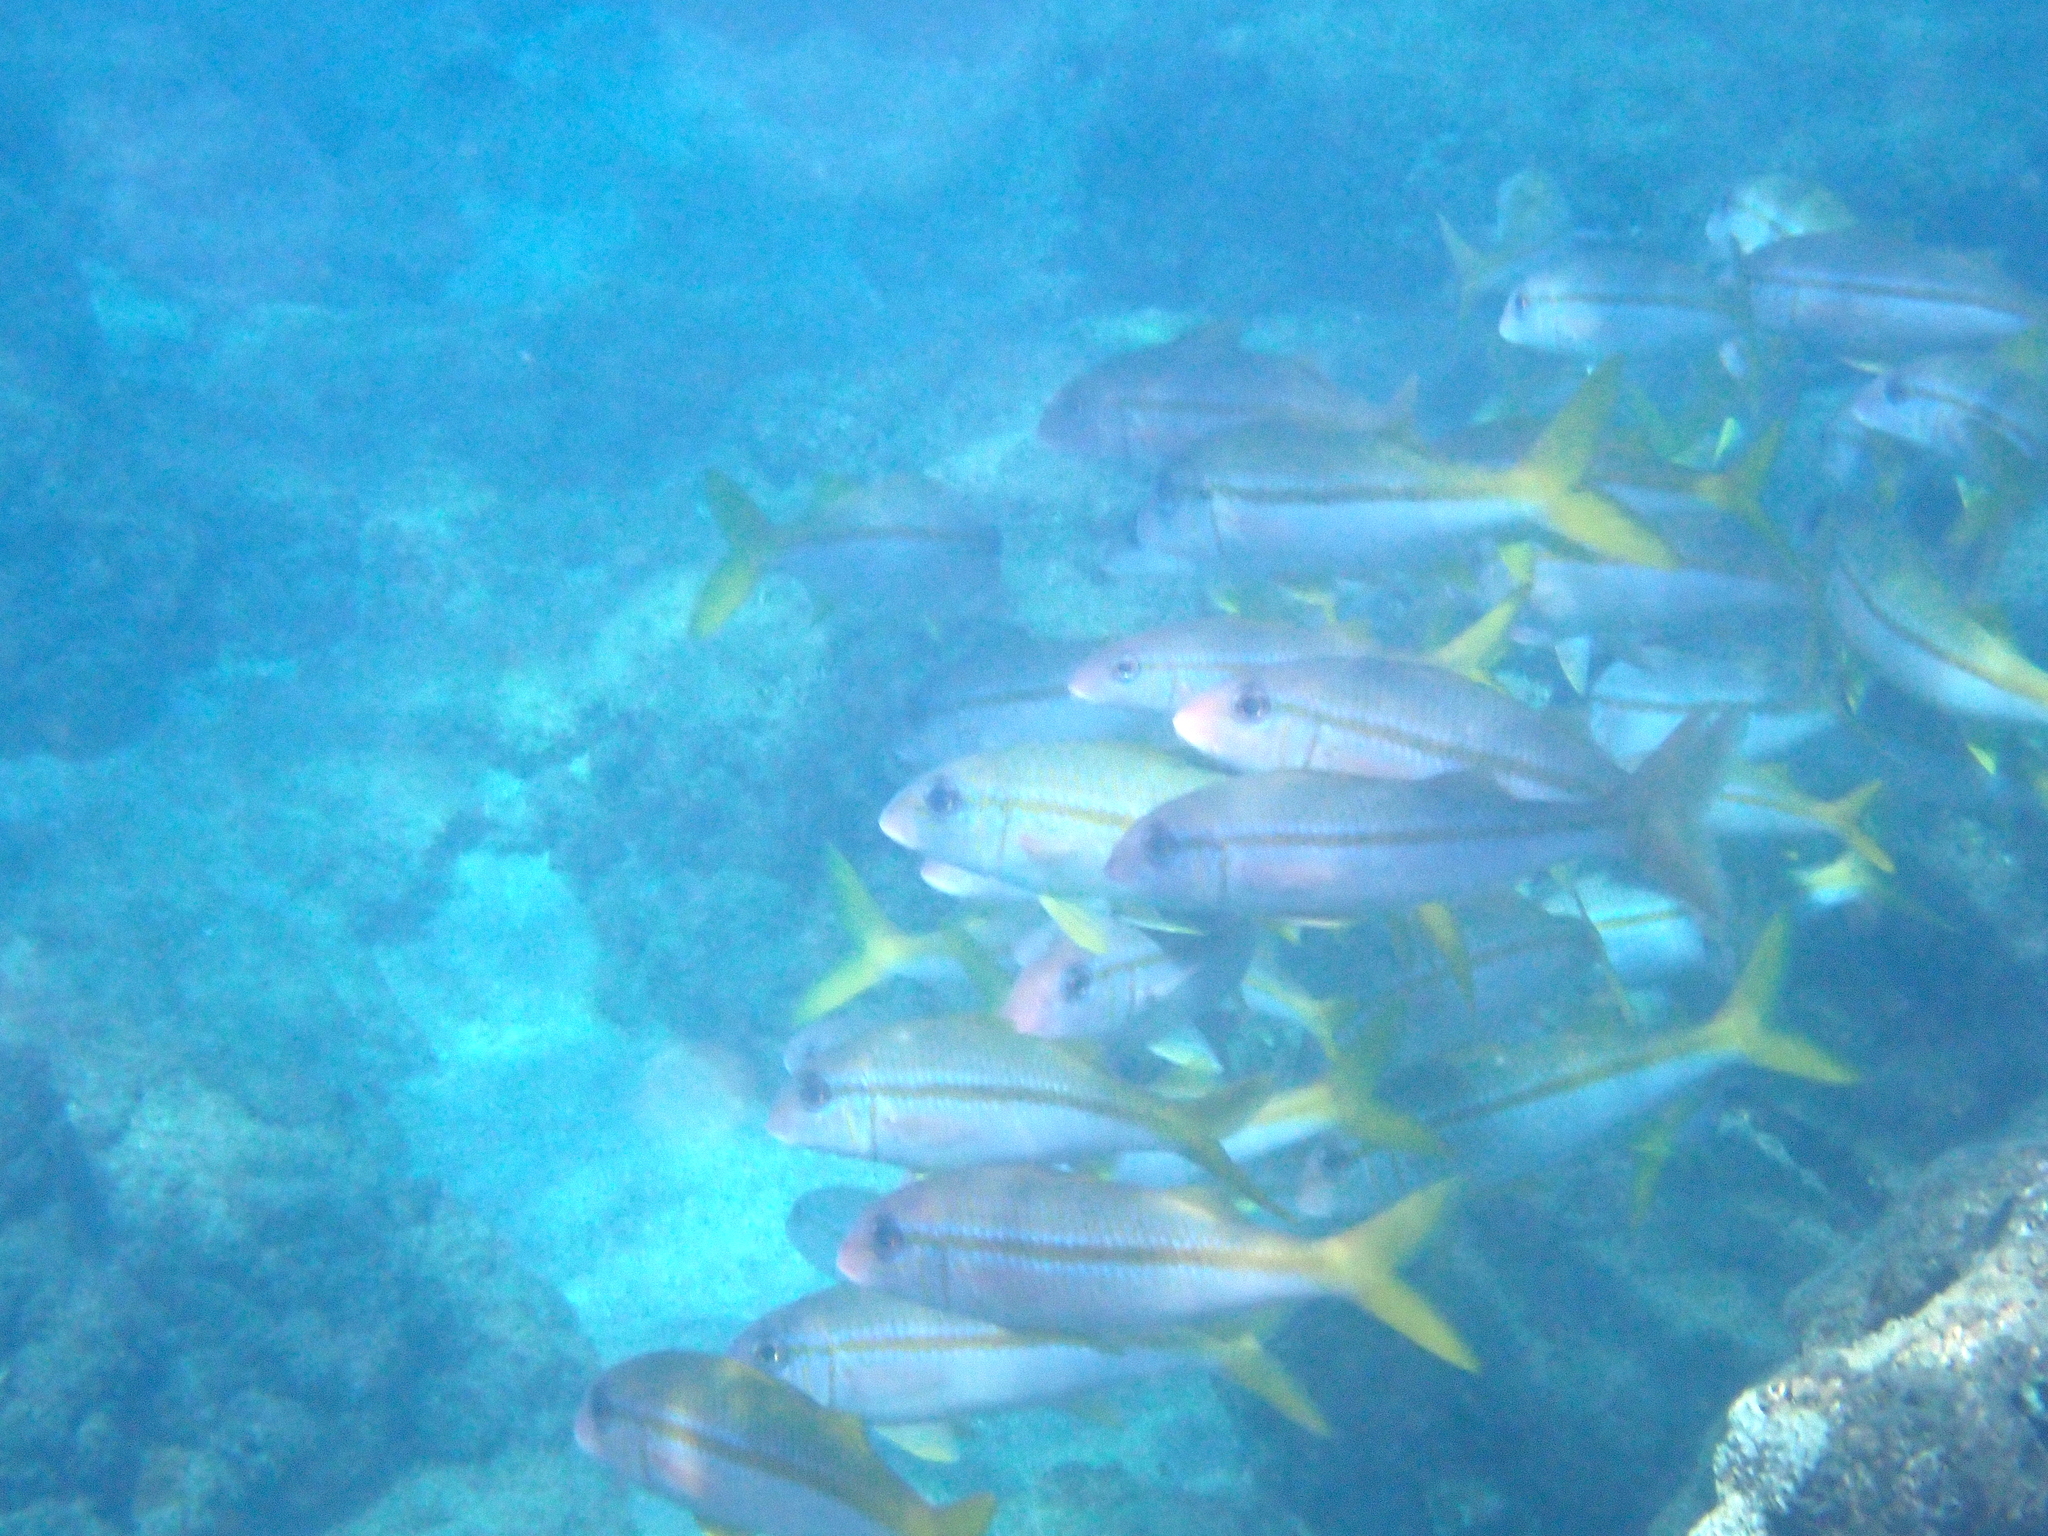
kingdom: Animalia
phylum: Chordata
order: Perciformes
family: Mullidae
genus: Mulloidichthys
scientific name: Mulloidichthys vanicolensis
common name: Yellowfin goatfish
